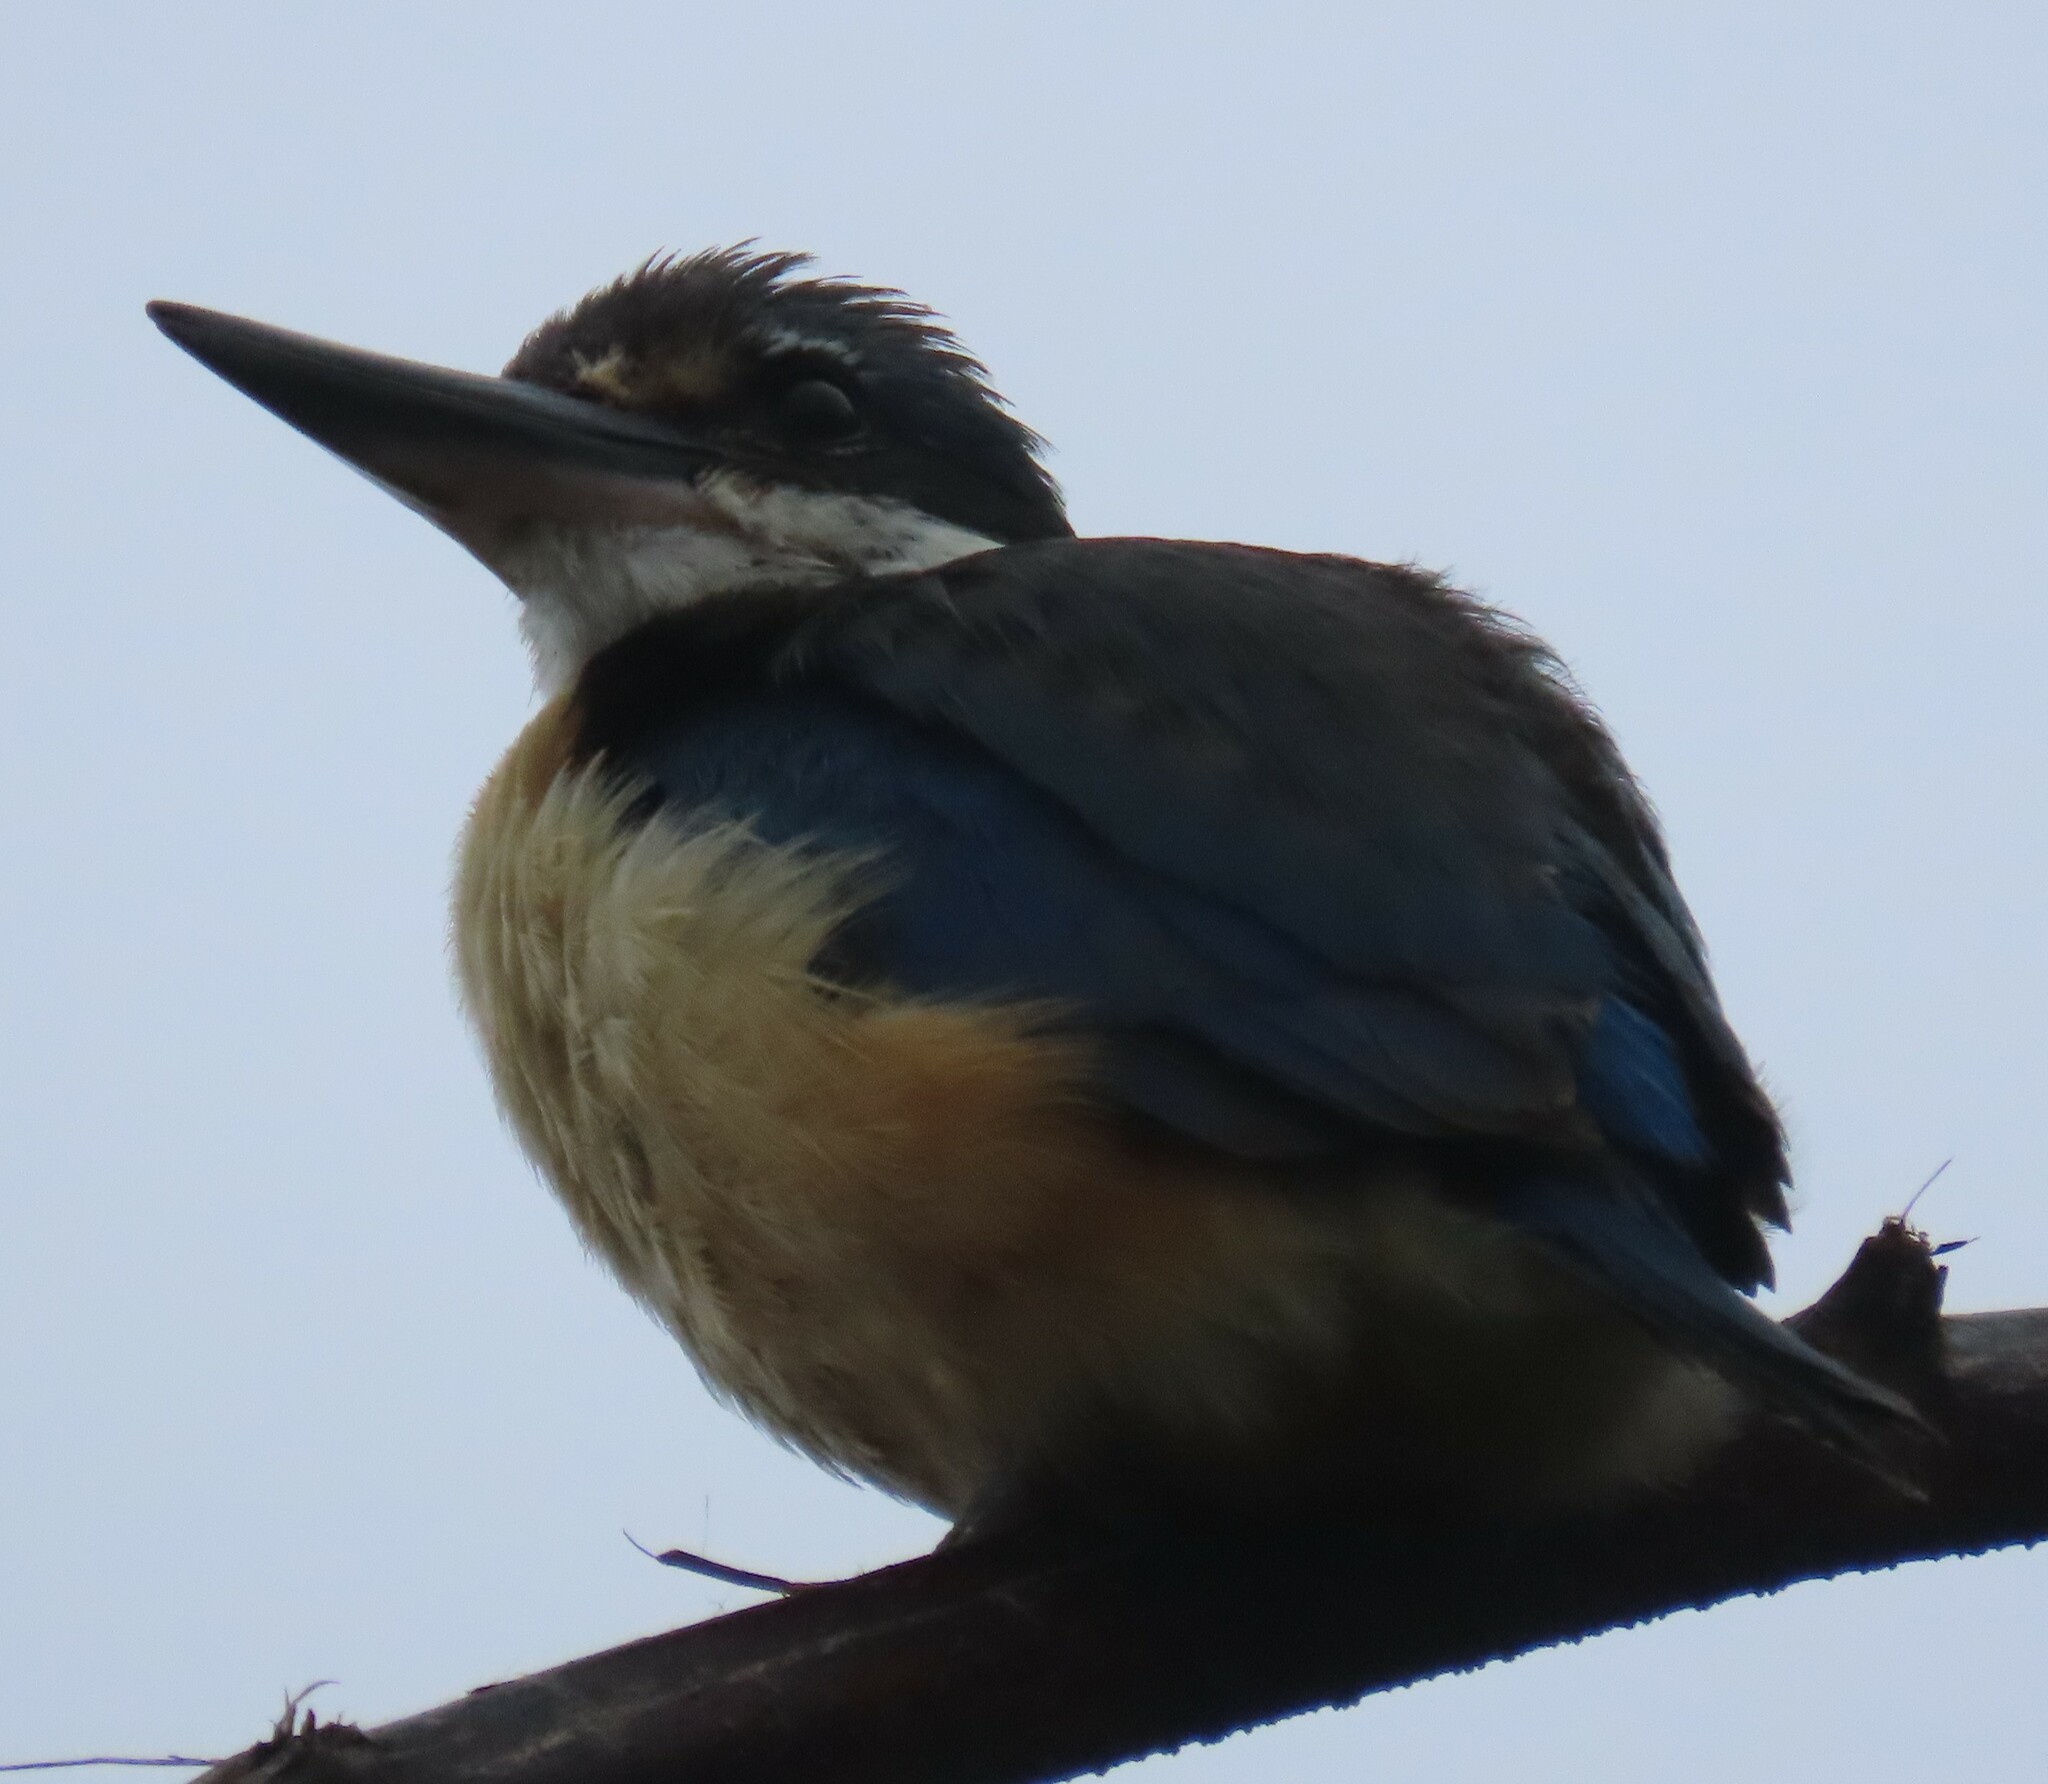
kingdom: Animalia
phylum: Chordata
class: Aves
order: Coraciiformes
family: Alcedinidae
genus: Todiramphus
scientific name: Todiramphus sanctus
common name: Sacred kingfisher
